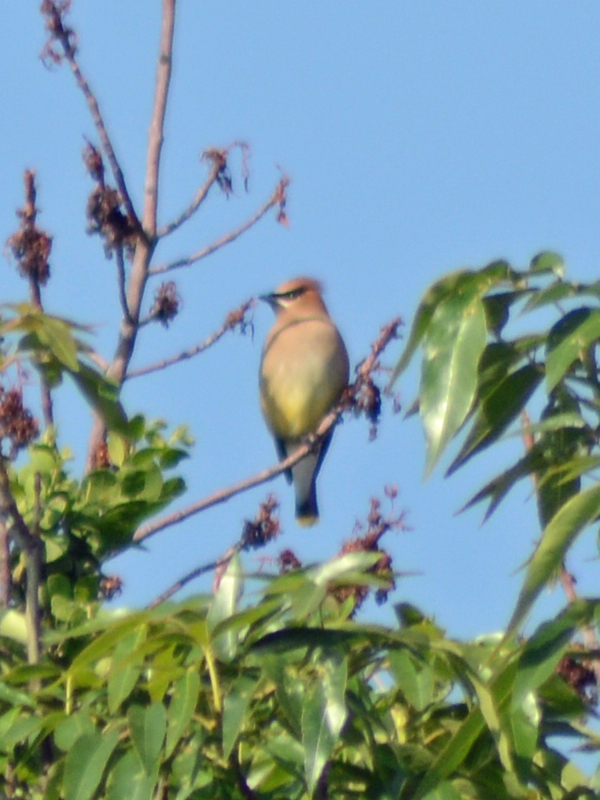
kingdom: Animalia
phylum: Chordata
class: Aves
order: Passeriformes
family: Bombycillidae
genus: Bombycilla
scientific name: Bombycilla cedrorum
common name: Cedar waxwing
